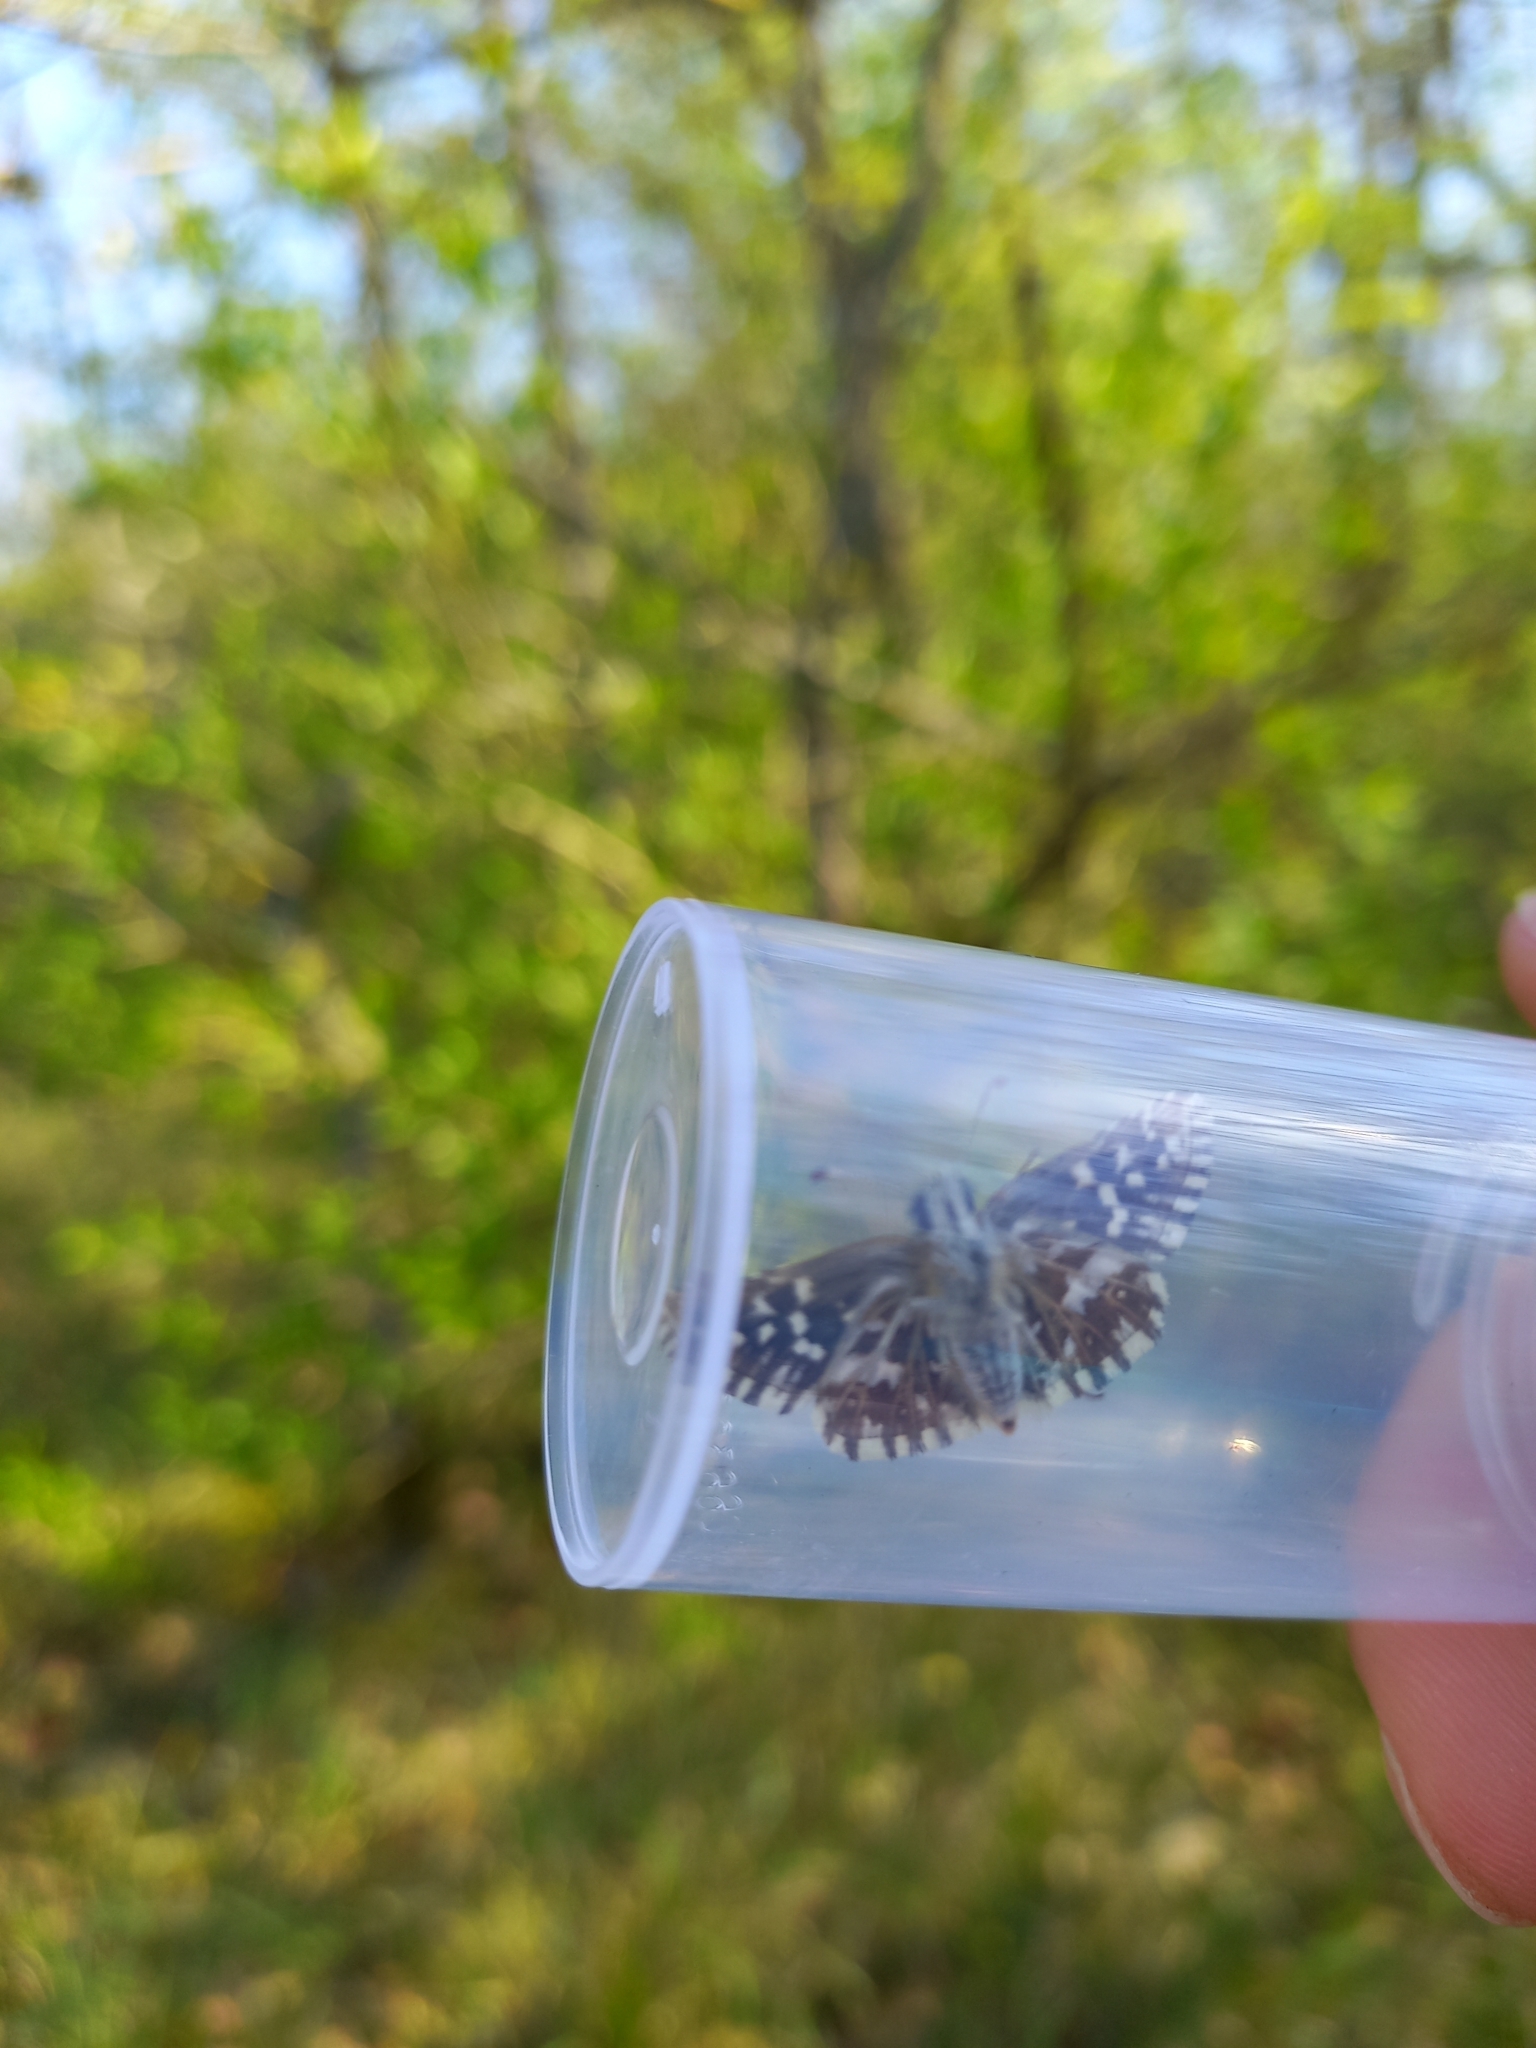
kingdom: Animalia
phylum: Arthropoda
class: Insecta
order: Lepidoptera
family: Hesperiidae
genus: Pyrgus
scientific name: Pyrgus malvae
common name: Grizzled skipper
